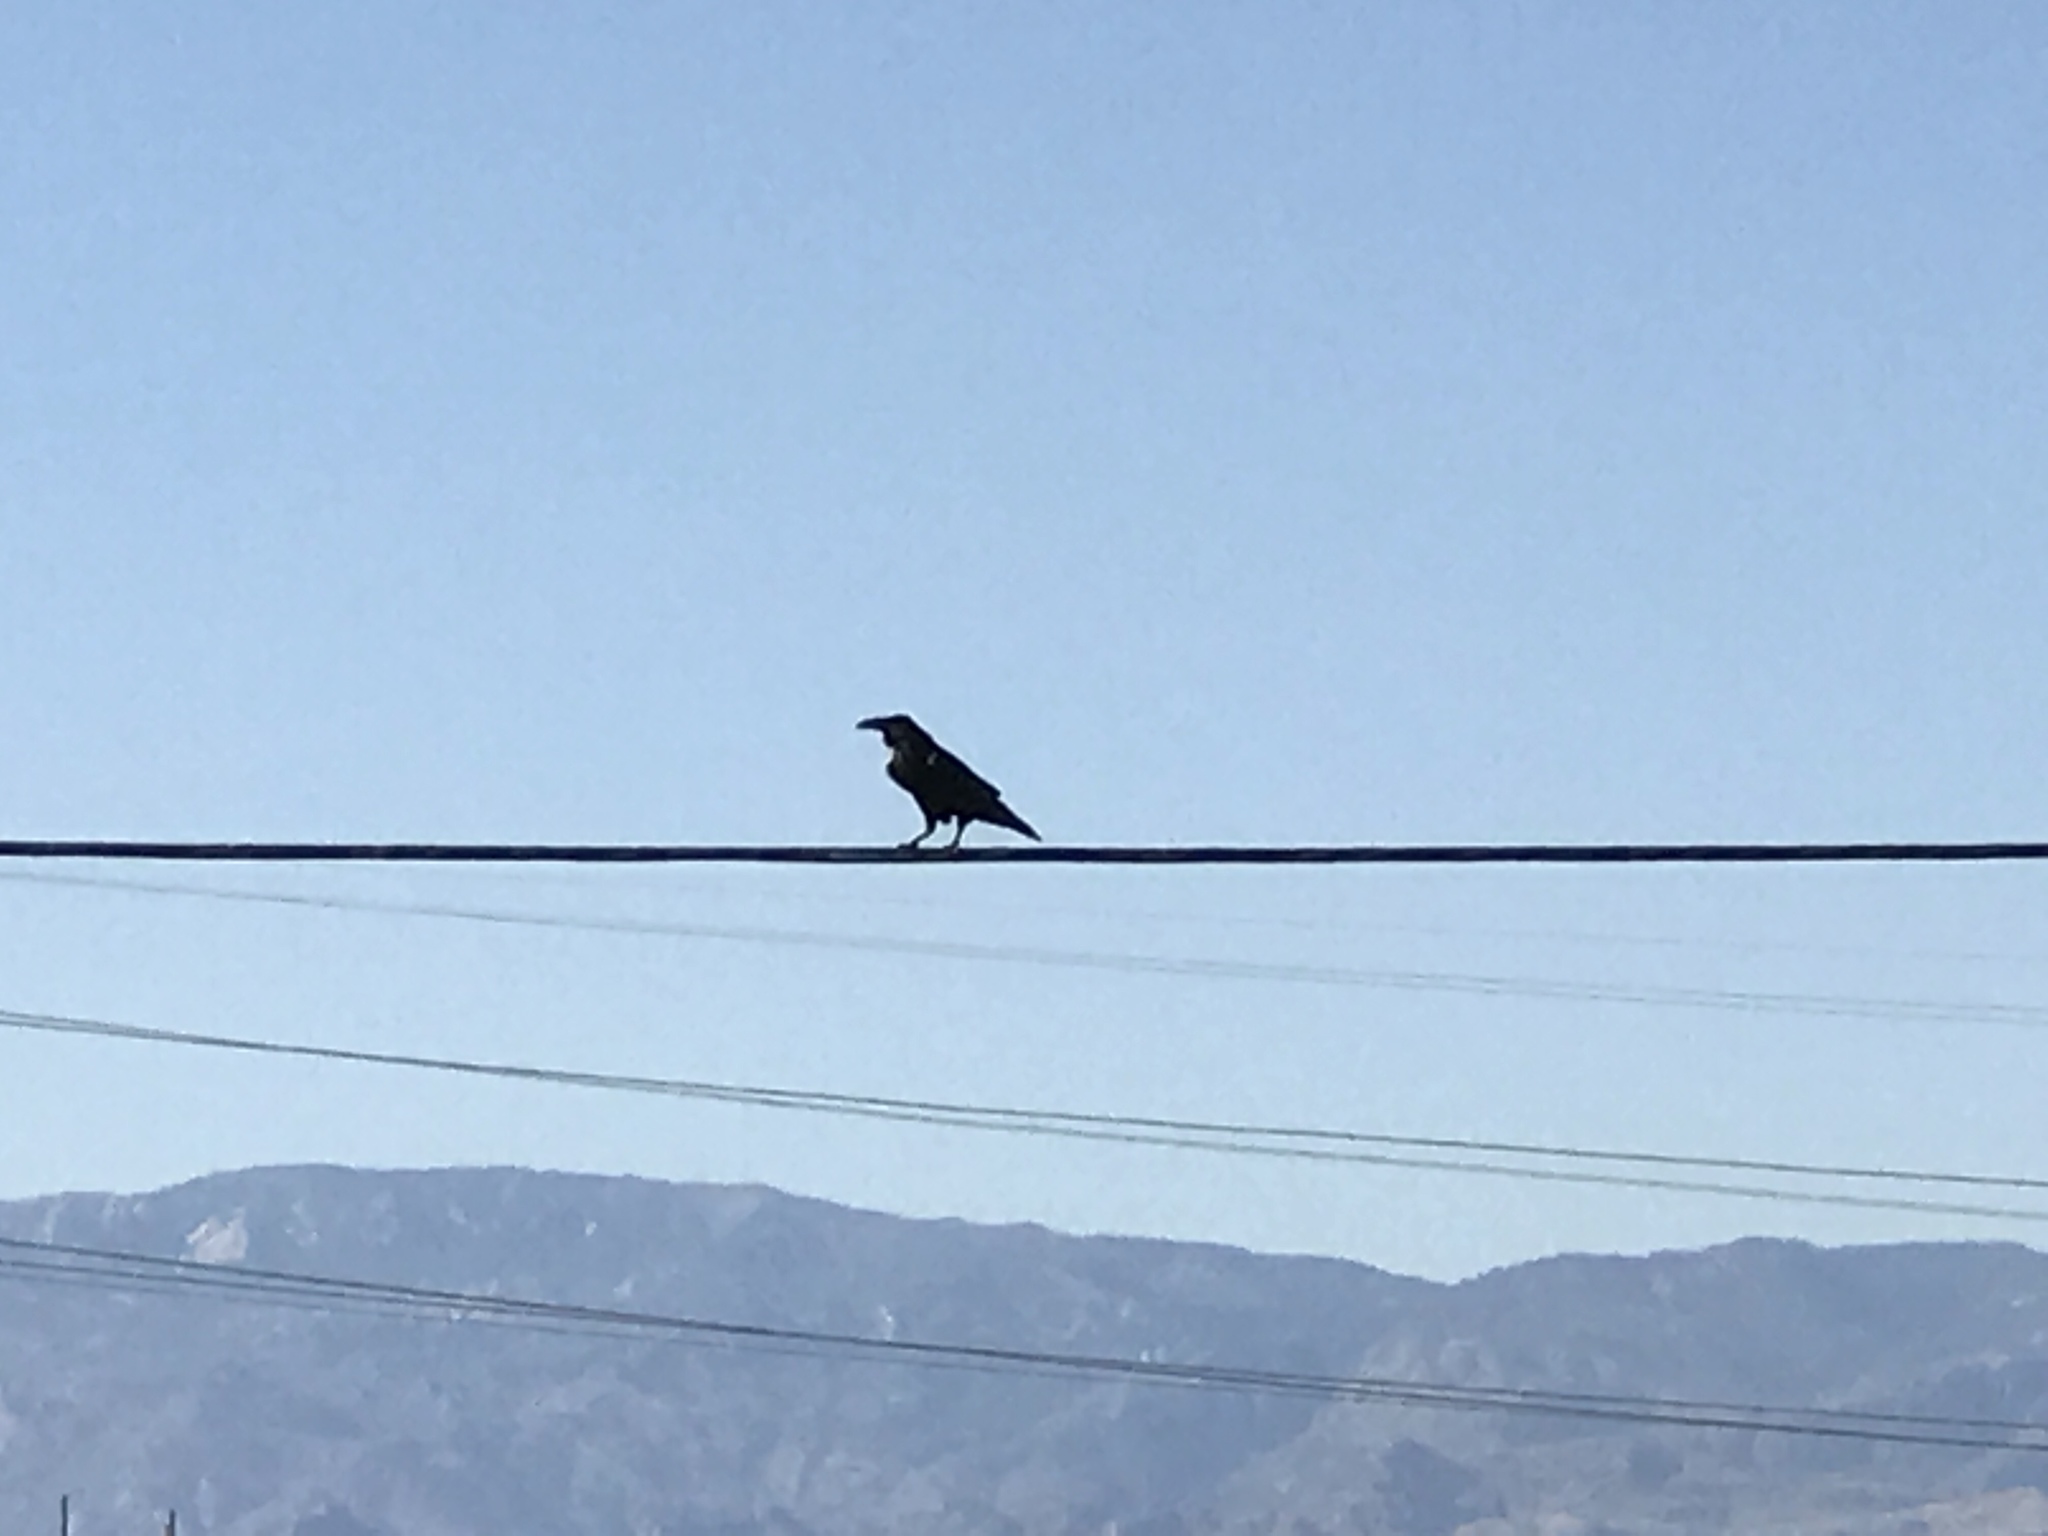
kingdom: Animalia
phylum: Chordata
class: Aves
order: Passeriformes
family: Corvidae
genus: Corvus
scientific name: Corvus corax
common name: Common raven
